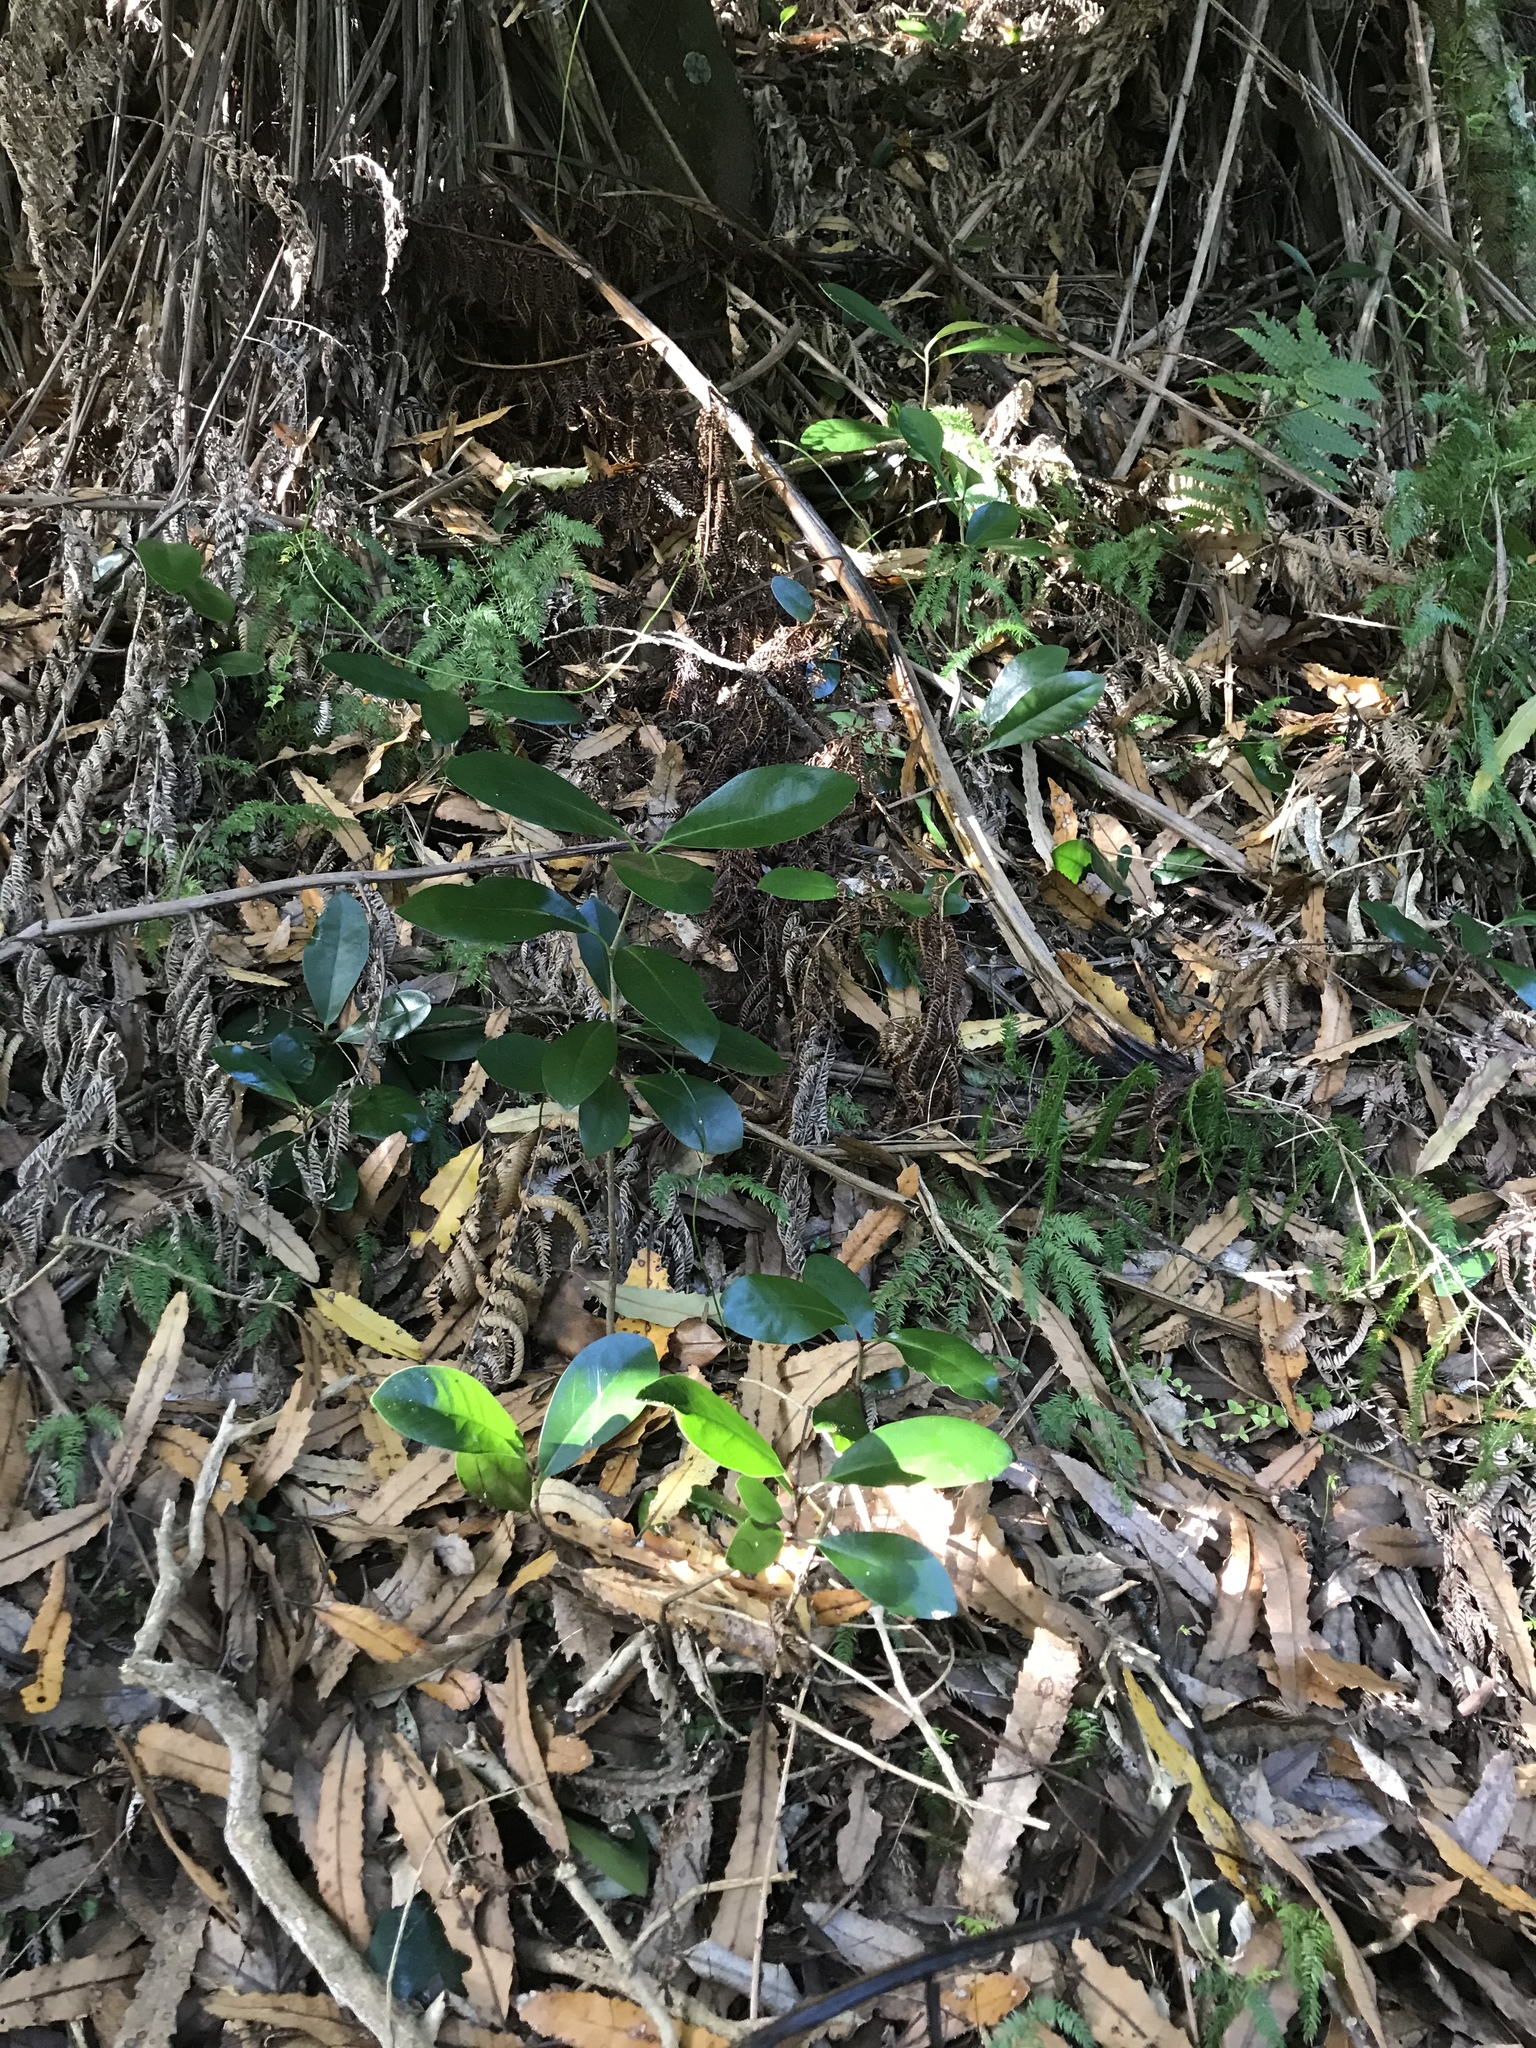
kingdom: Plantae
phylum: Tracheophyta
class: Magnoliopsida
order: Cucurbitales
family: Corynocarpaceae
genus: Corynocarpus
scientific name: Corynocarpus laevigatus
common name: New zealand laurel
